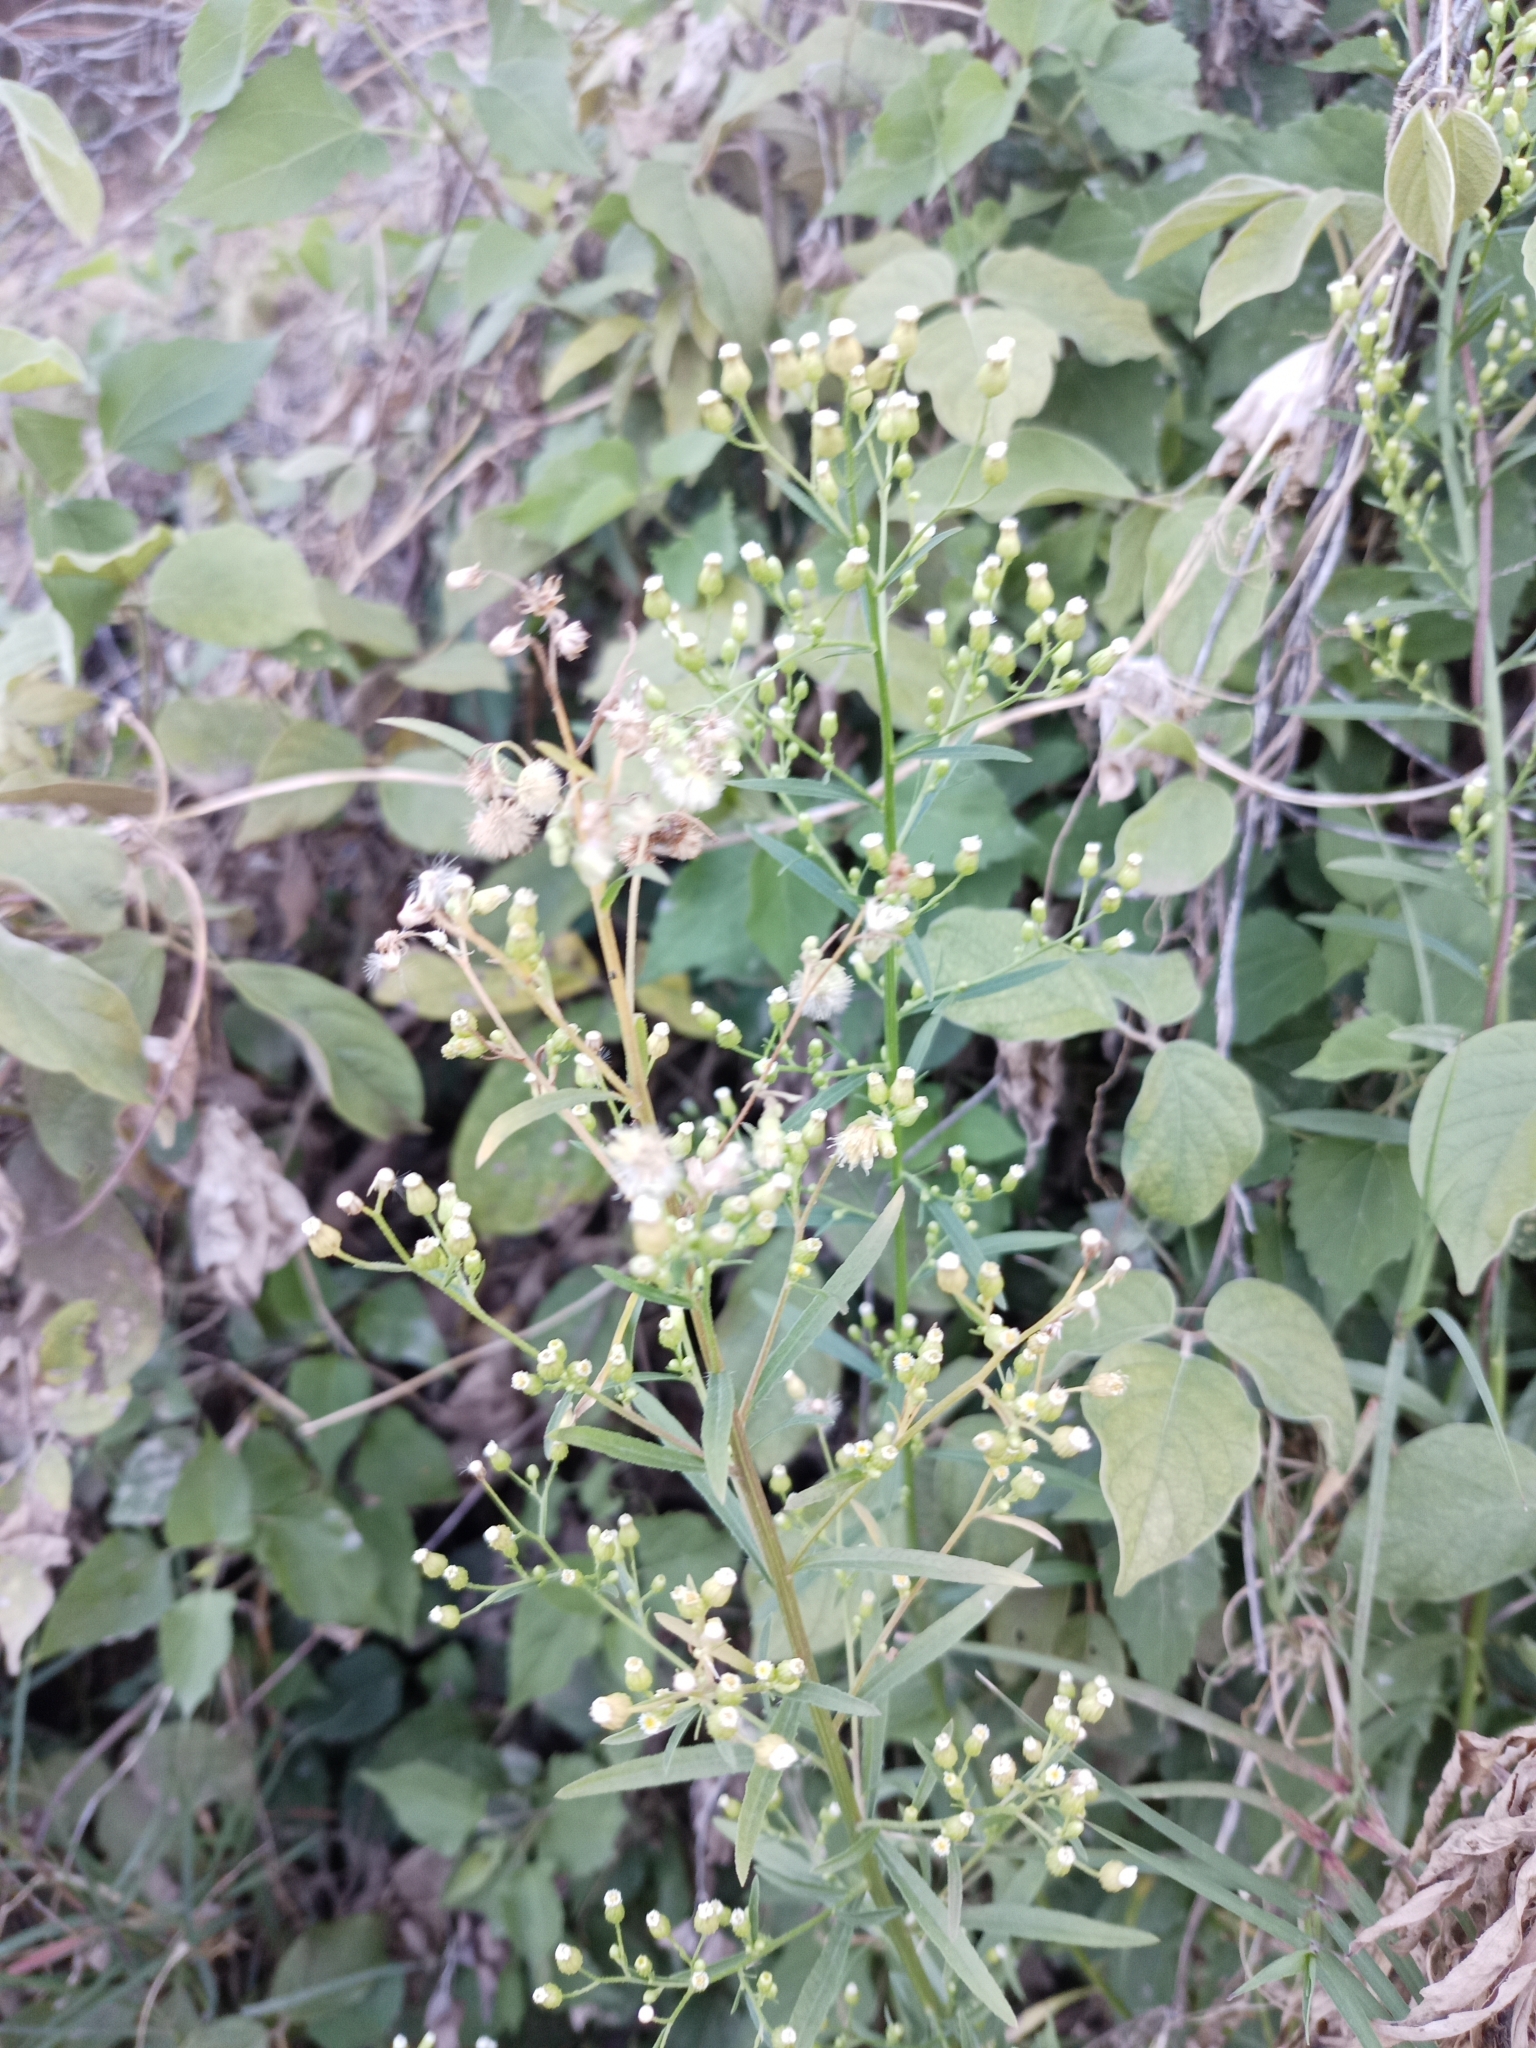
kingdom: Plantae
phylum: Tracheophyta
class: Magnoliopsida
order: Asterales
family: Asteraceae
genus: Erigeron
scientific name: Erigeron canadensis
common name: Canadian fleabane
